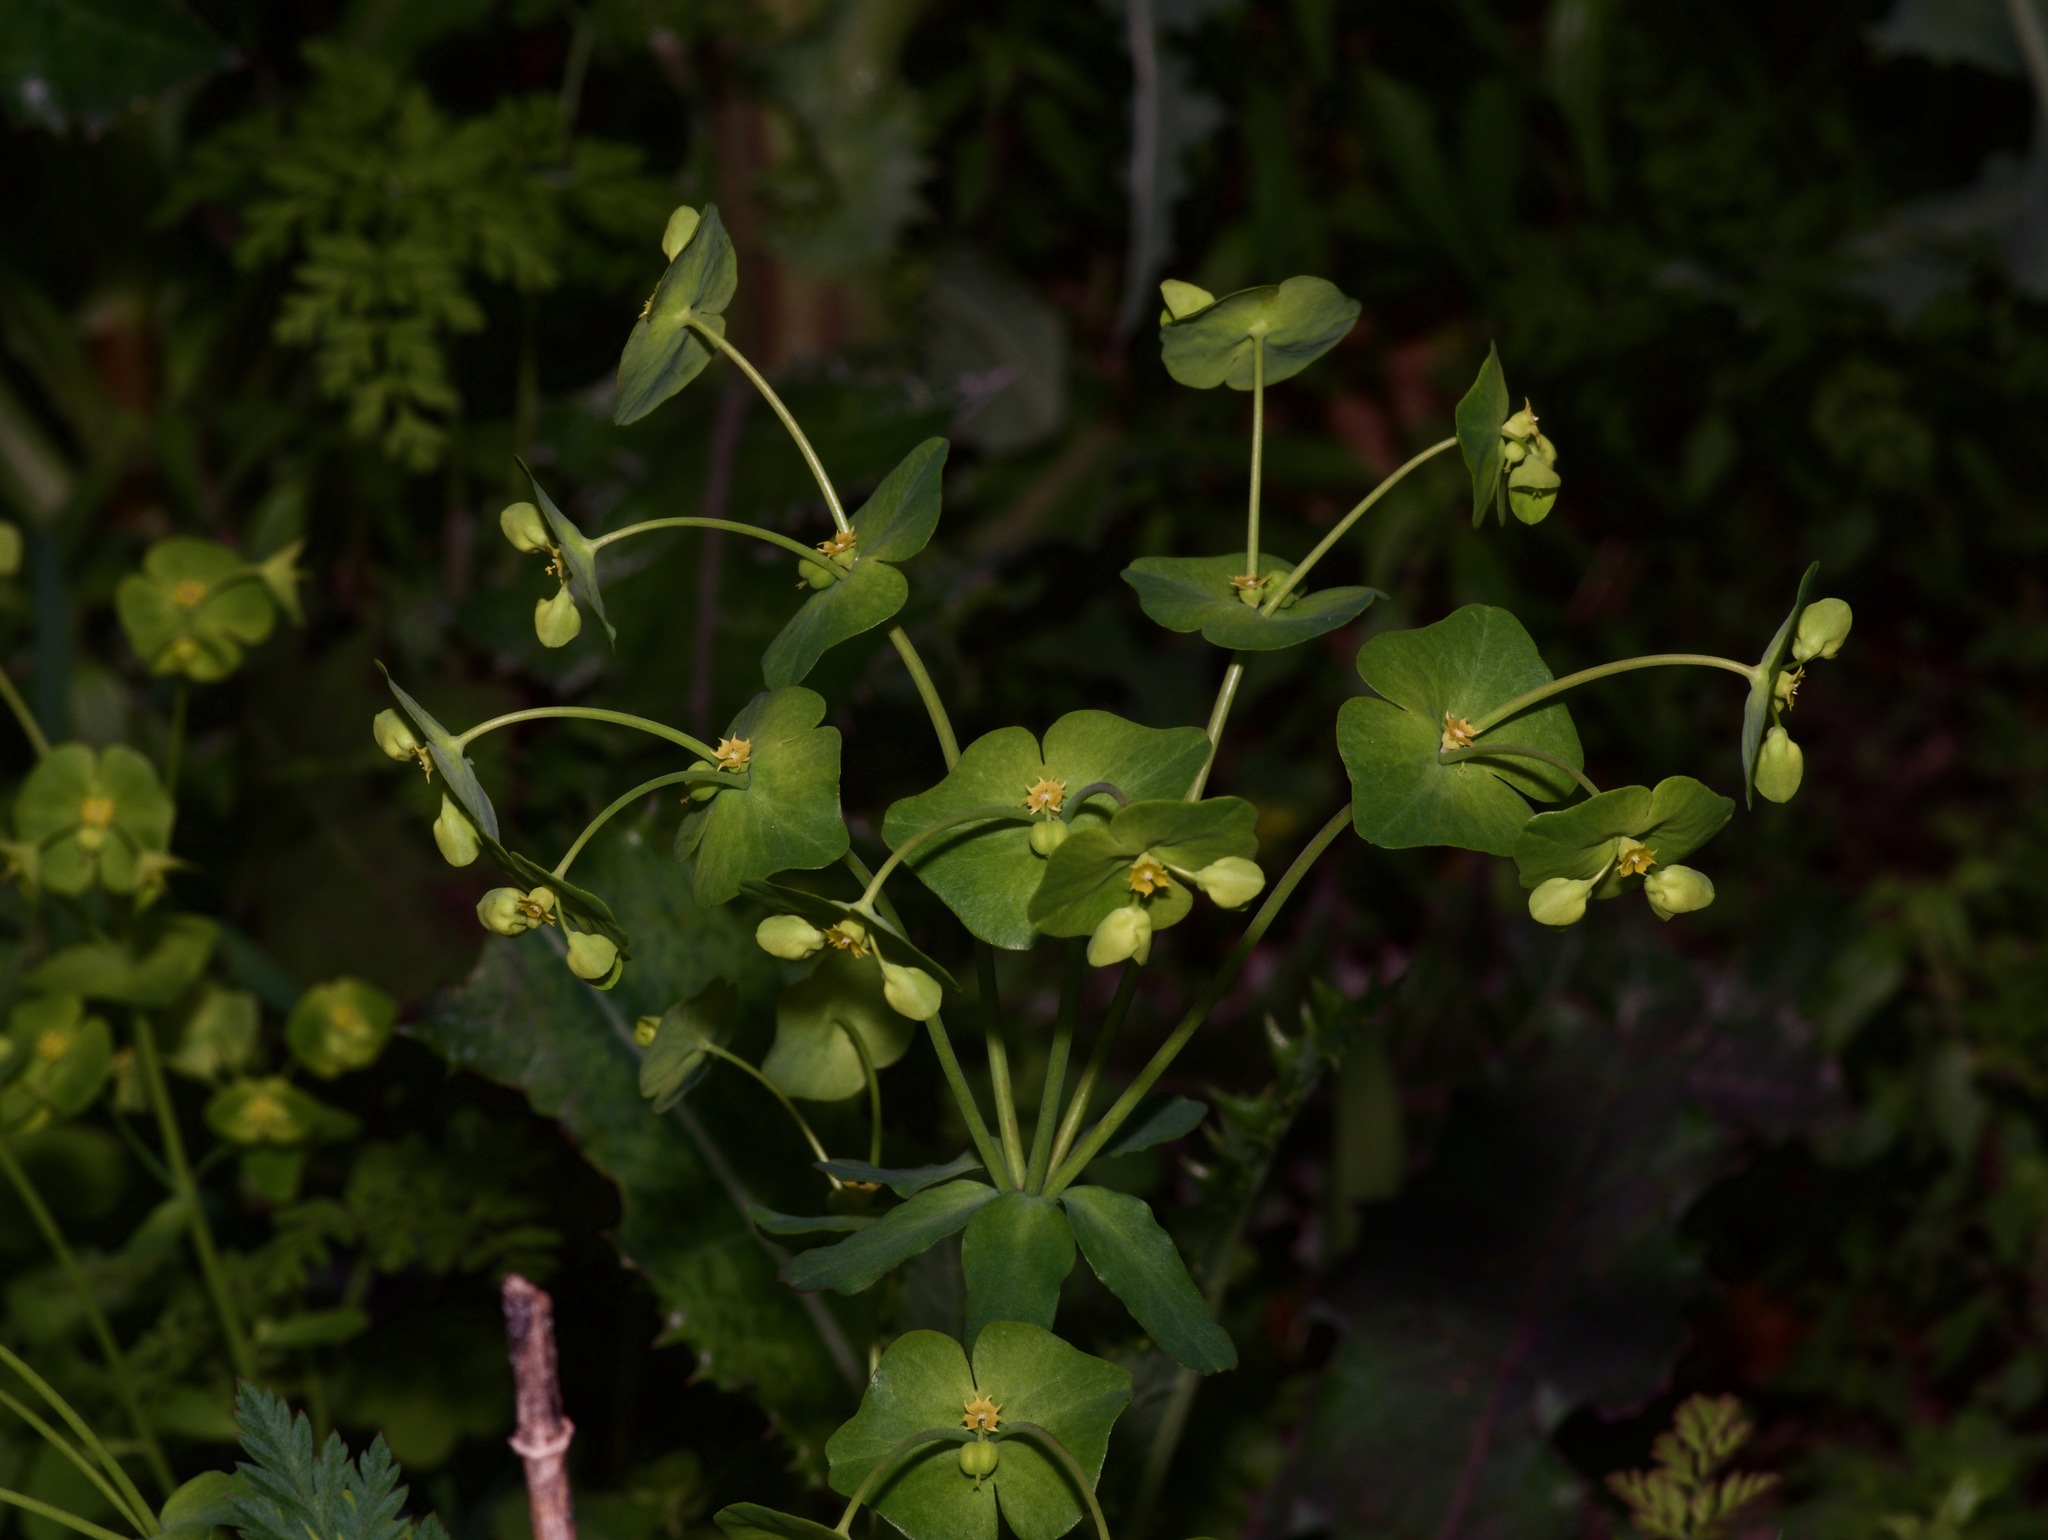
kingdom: Plantae
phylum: Tracheophyta
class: Magnoliopsida
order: Malpighiales
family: Euphorbiaceae
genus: Euphorbia
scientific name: Euphorbia roemeriana
